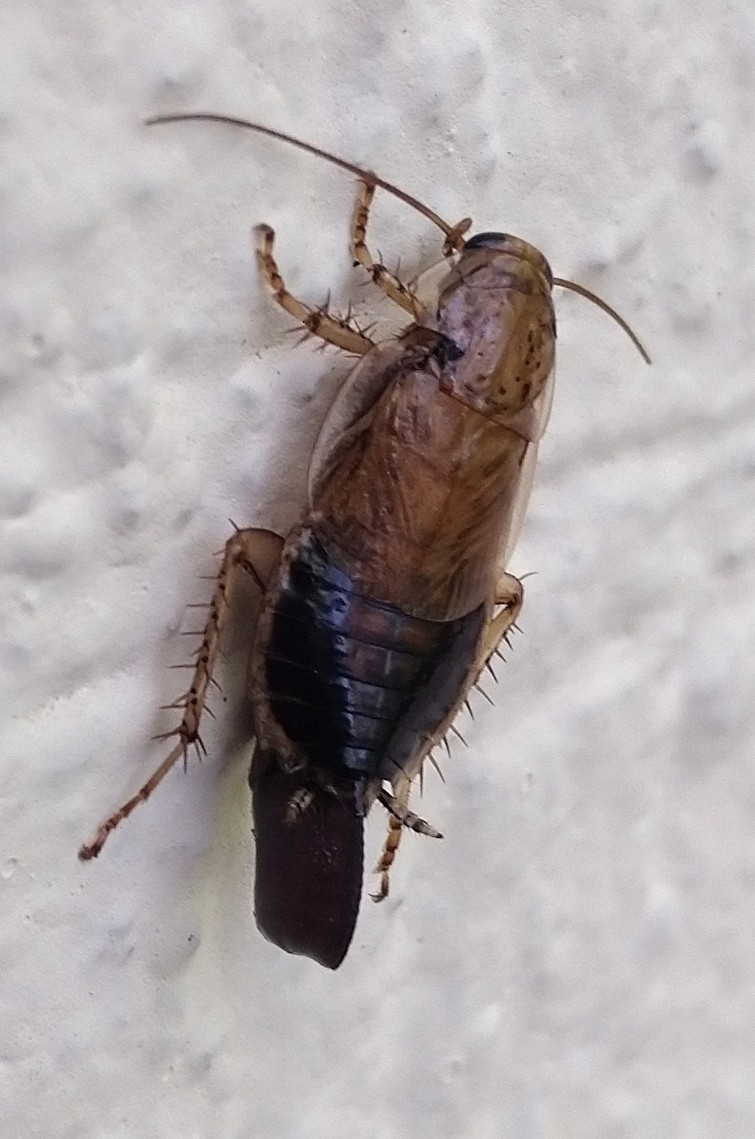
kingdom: Animalia
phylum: Arthropoda
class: Insecta
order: Blattodea
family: Ectobiidae
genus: Latiblattella
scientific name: Latiblattella tarasca
